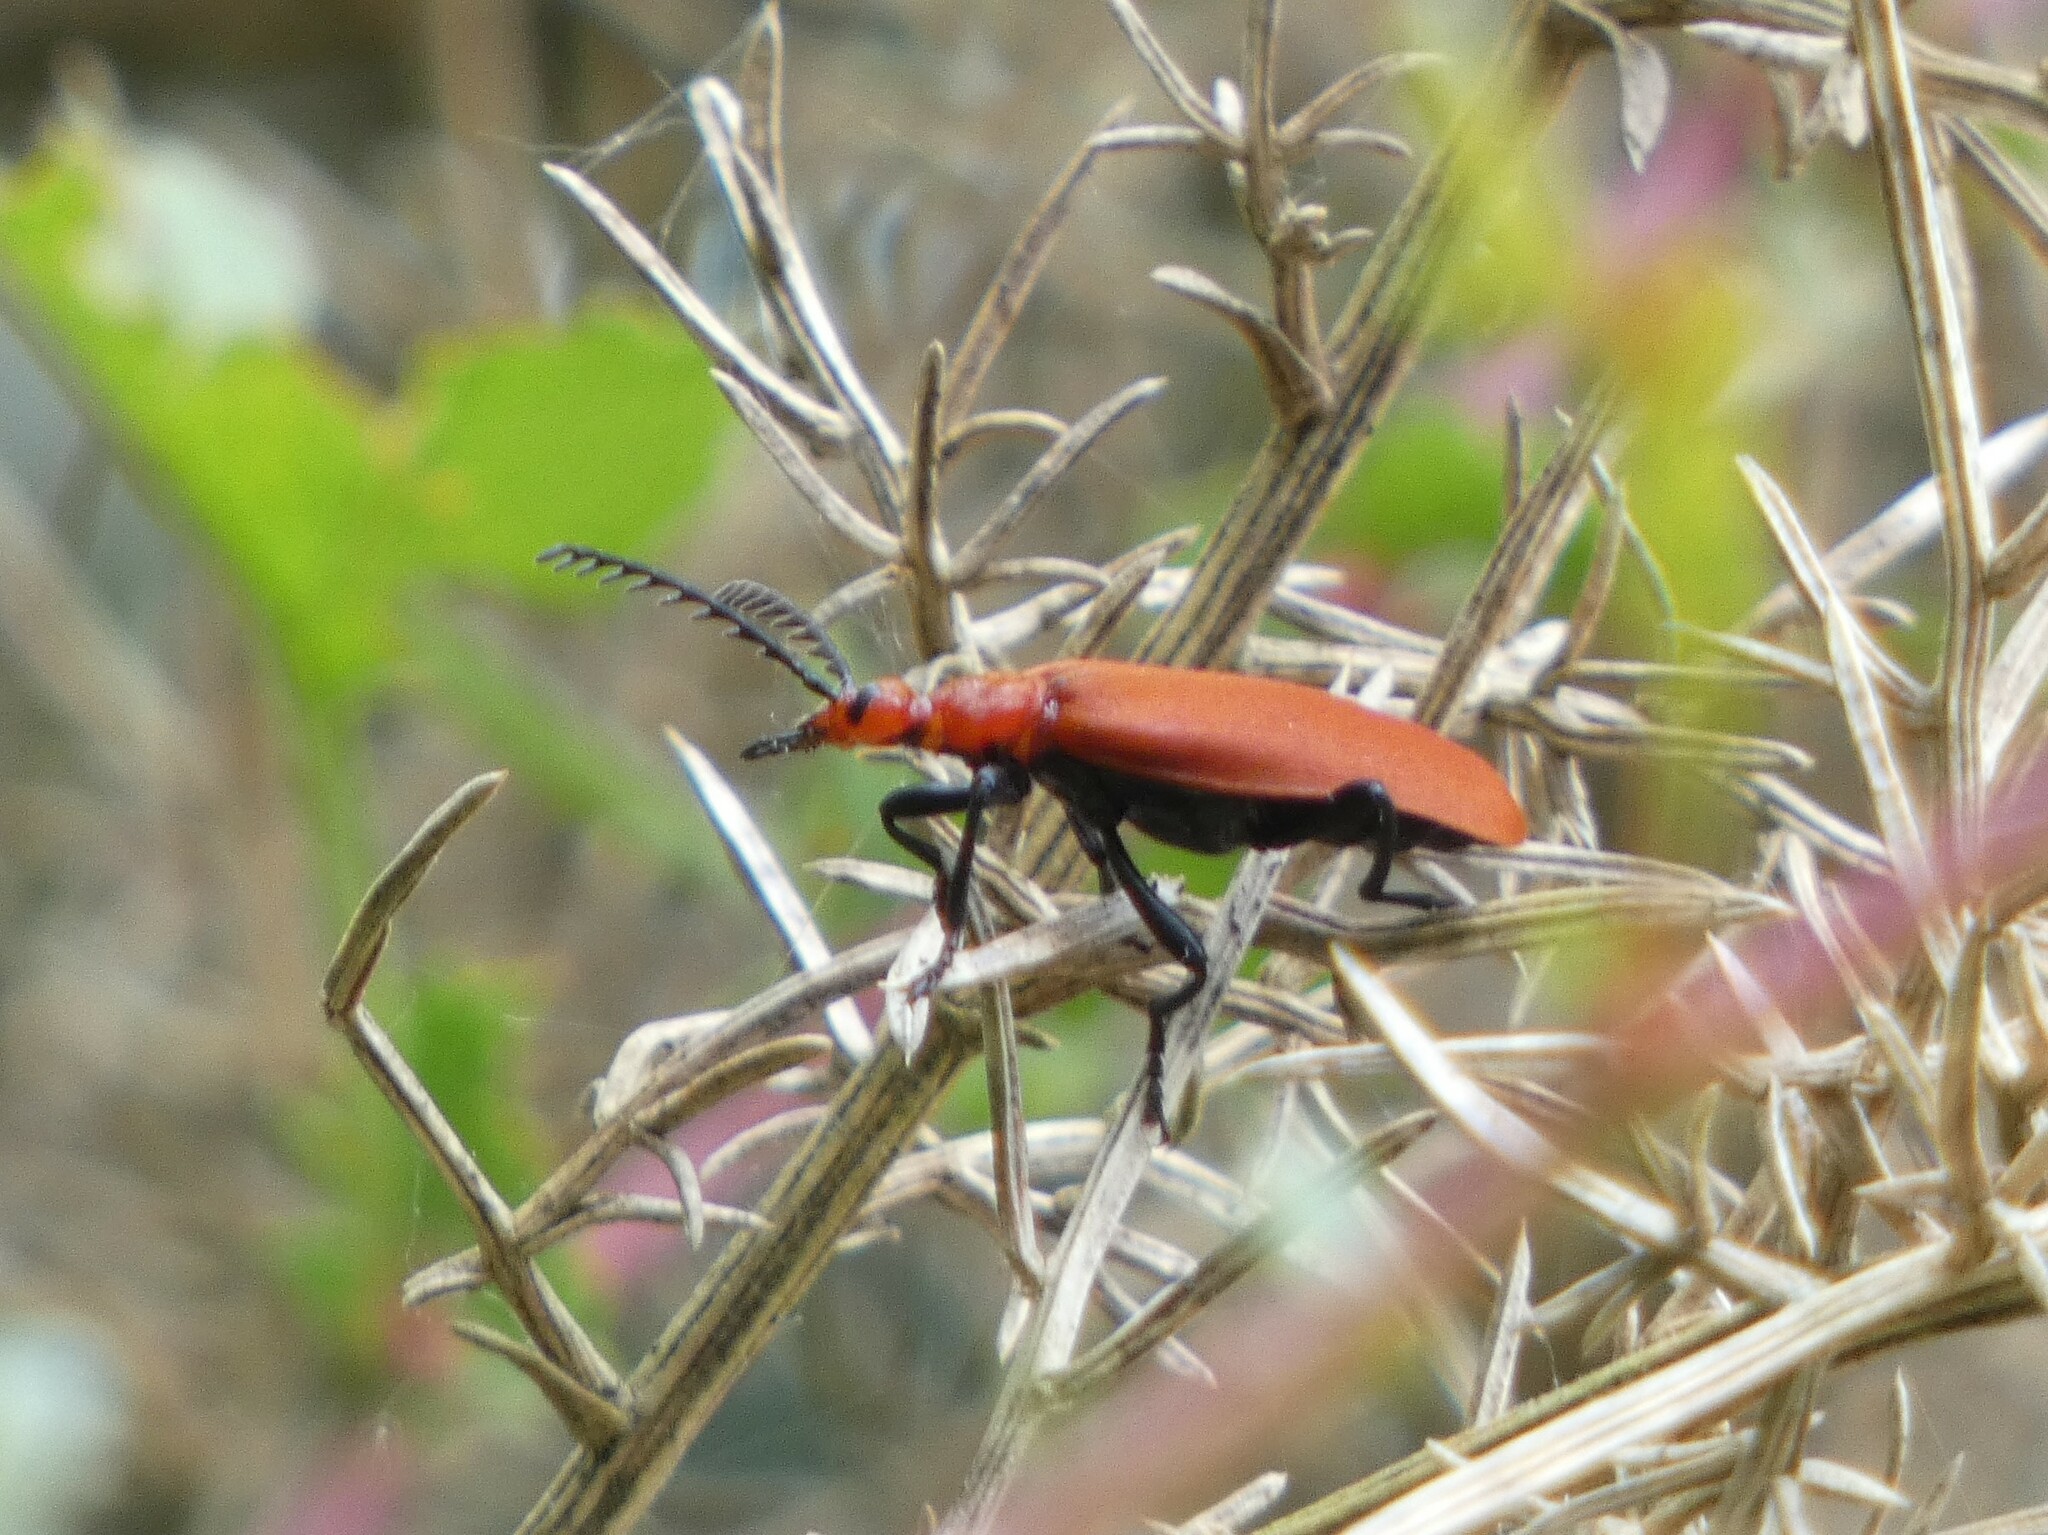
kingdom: Animalia
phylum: Arthropoda
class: Insecta
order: Coleoptera
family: Pyrochroidae
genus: Pyrochroa
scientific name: Pyrochroa serraticornis
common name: Red-headed cardinal beetle
